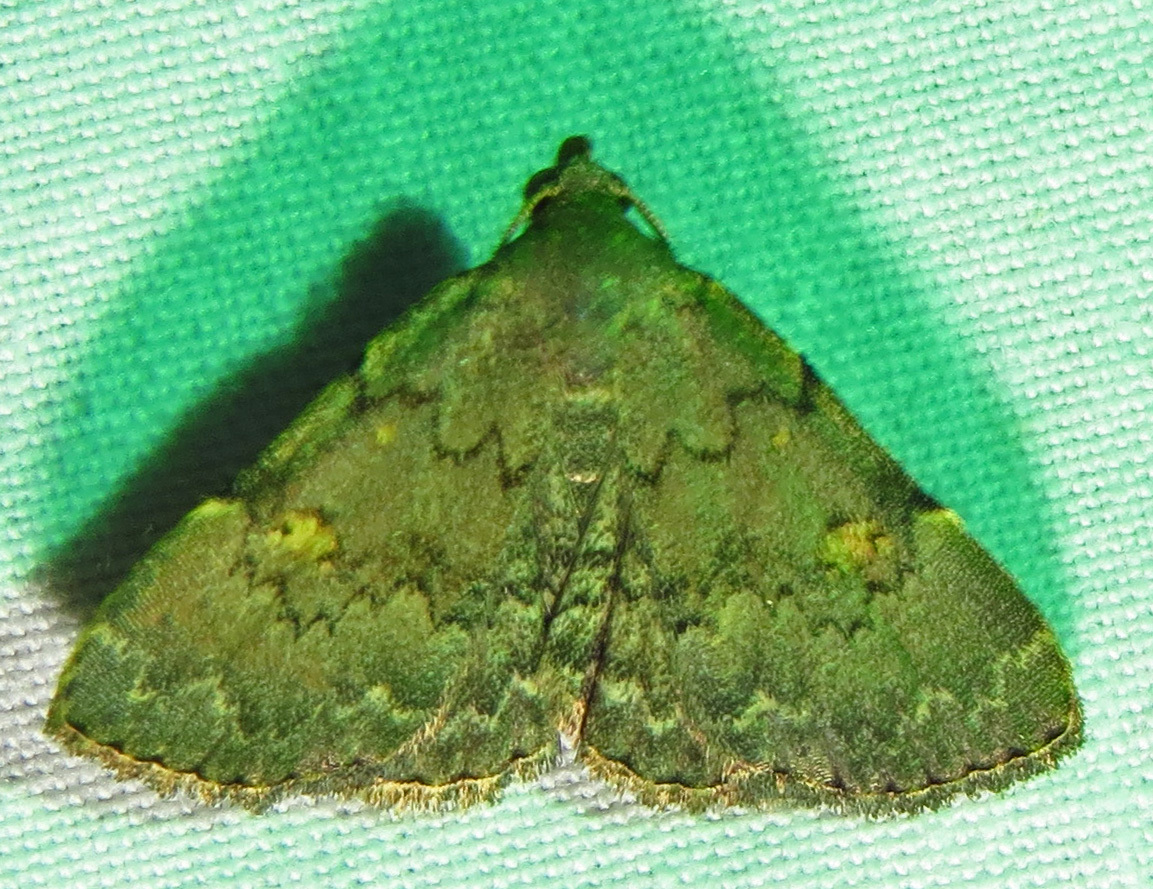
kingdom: Animalia
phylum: Arthropoda
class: Insecta
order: Lepidoptera
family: Erebidae
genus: Idia
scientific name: Idia aemula
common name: Common idia moth
